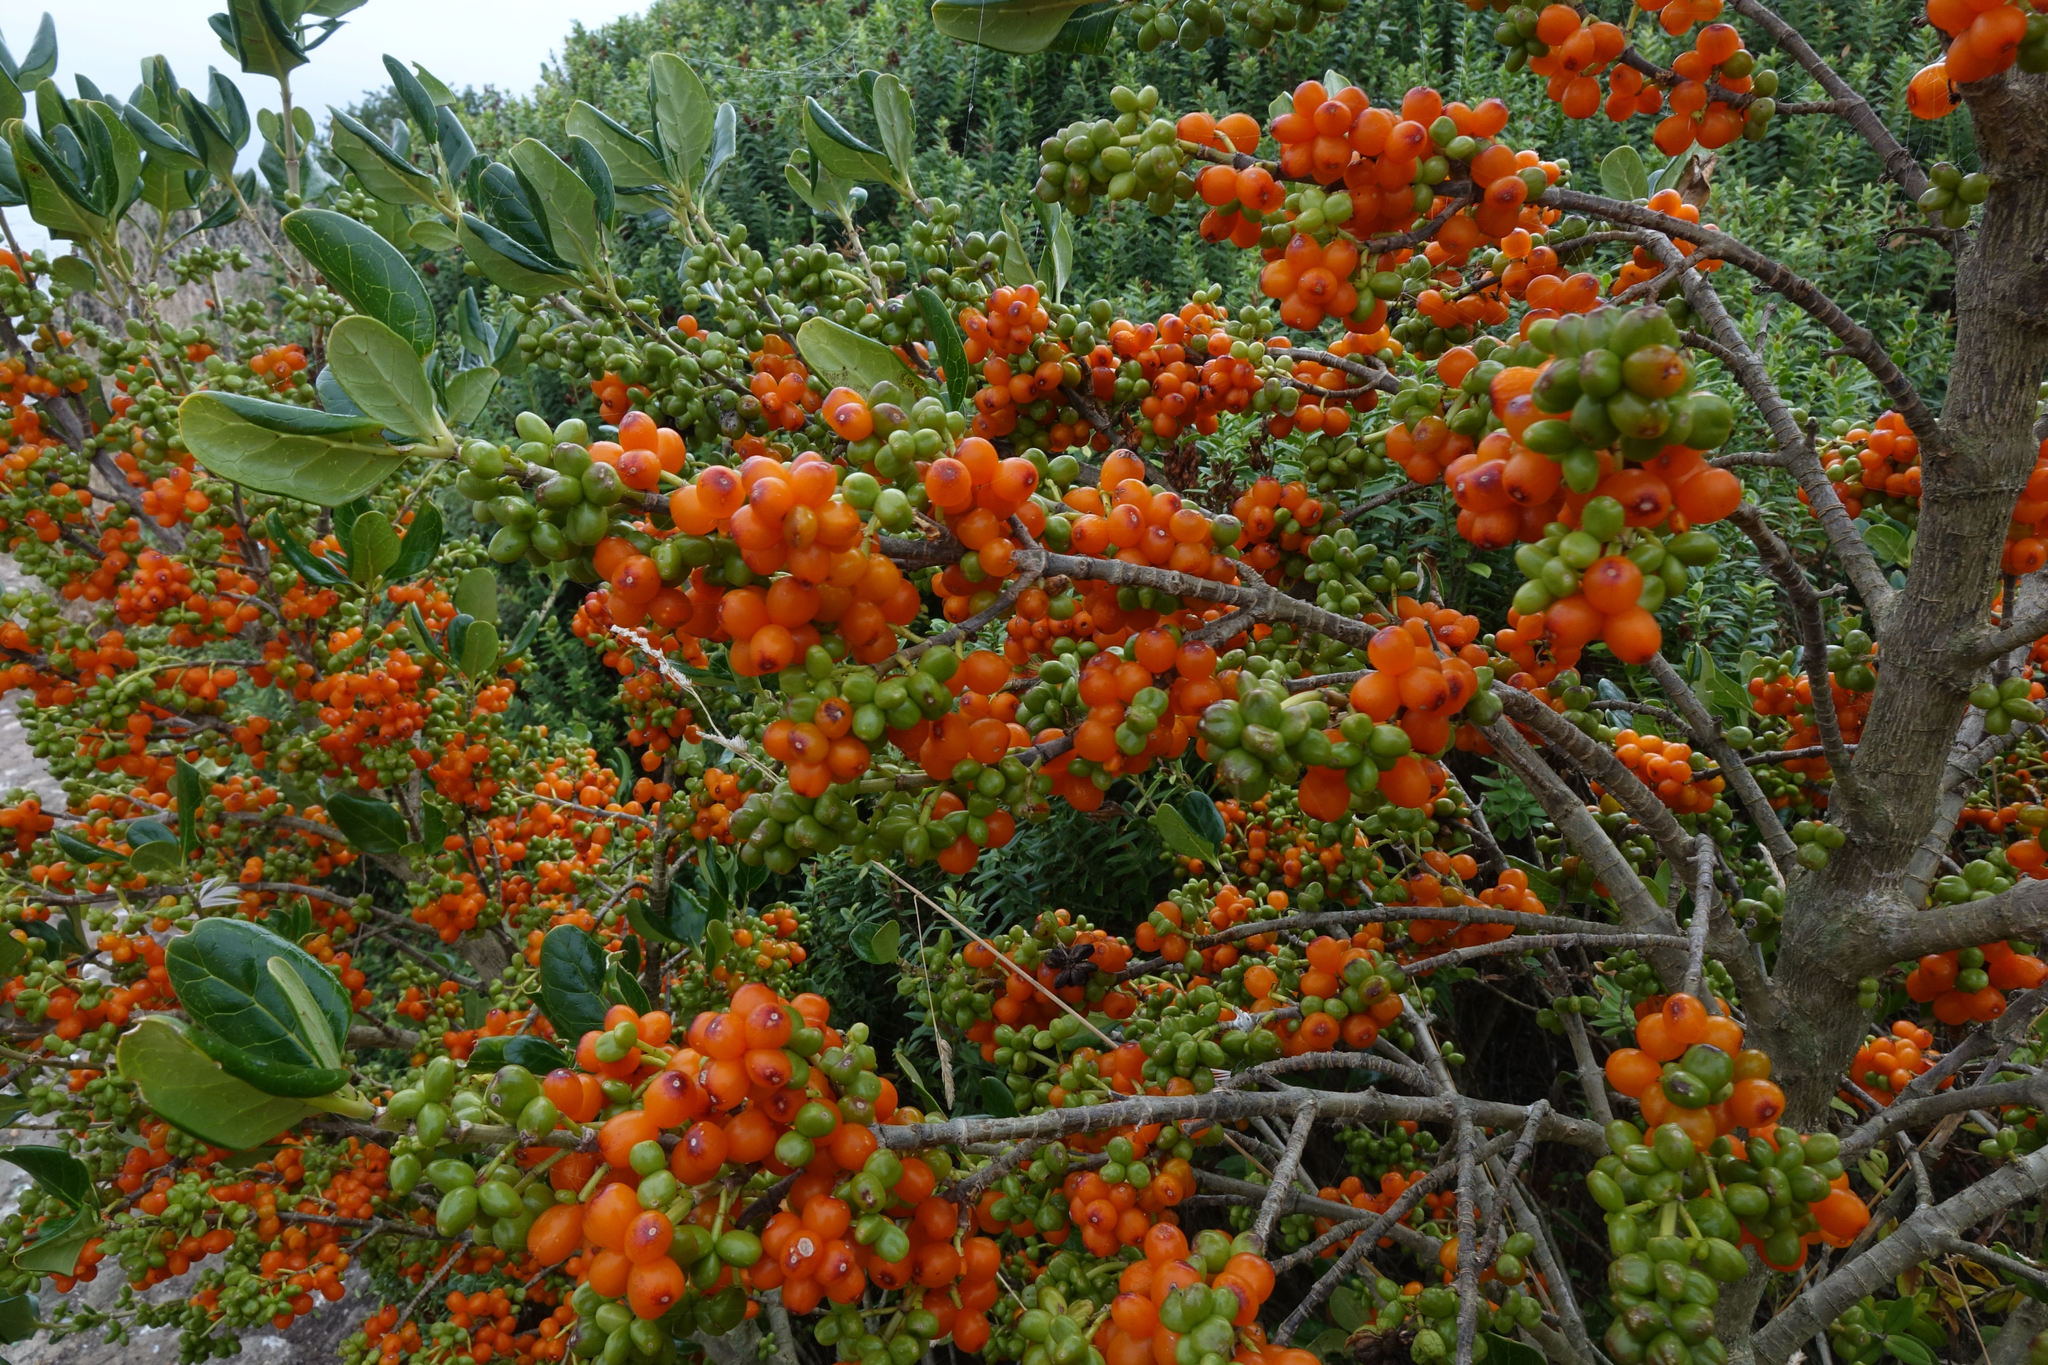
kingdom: Plantae
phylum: Tracheophyta
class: Magnoliopsida
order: Gentianales
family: Rubiaceae
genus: Coprosma
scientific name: Coprosma repens
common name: Tree bedstraw
